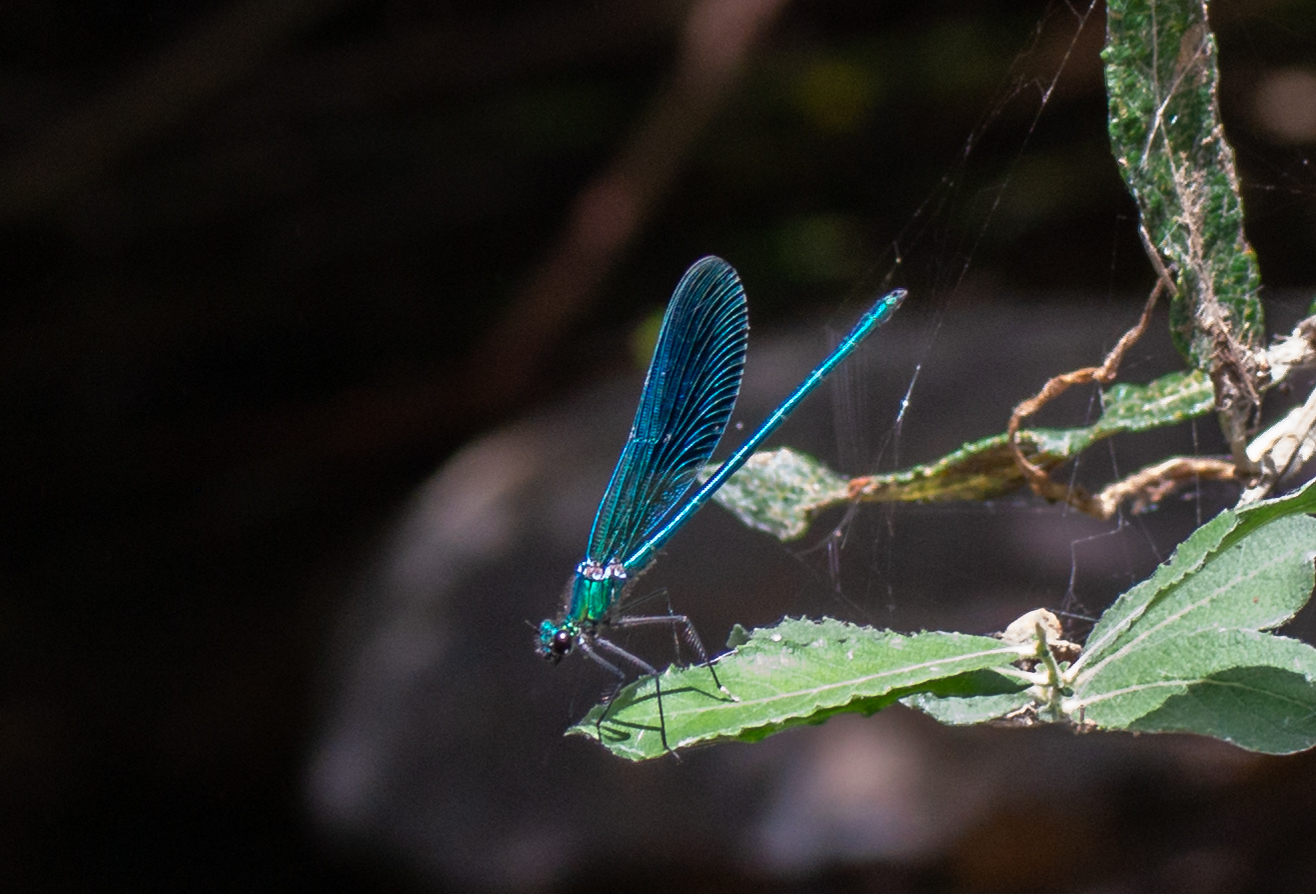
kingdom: Animalia
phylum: Arthropoda
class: Insecta
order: Odonata
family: Calopterygidae
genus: Calopteryx
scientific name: Calopteryx xanthostoma
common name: Western demoiselle
